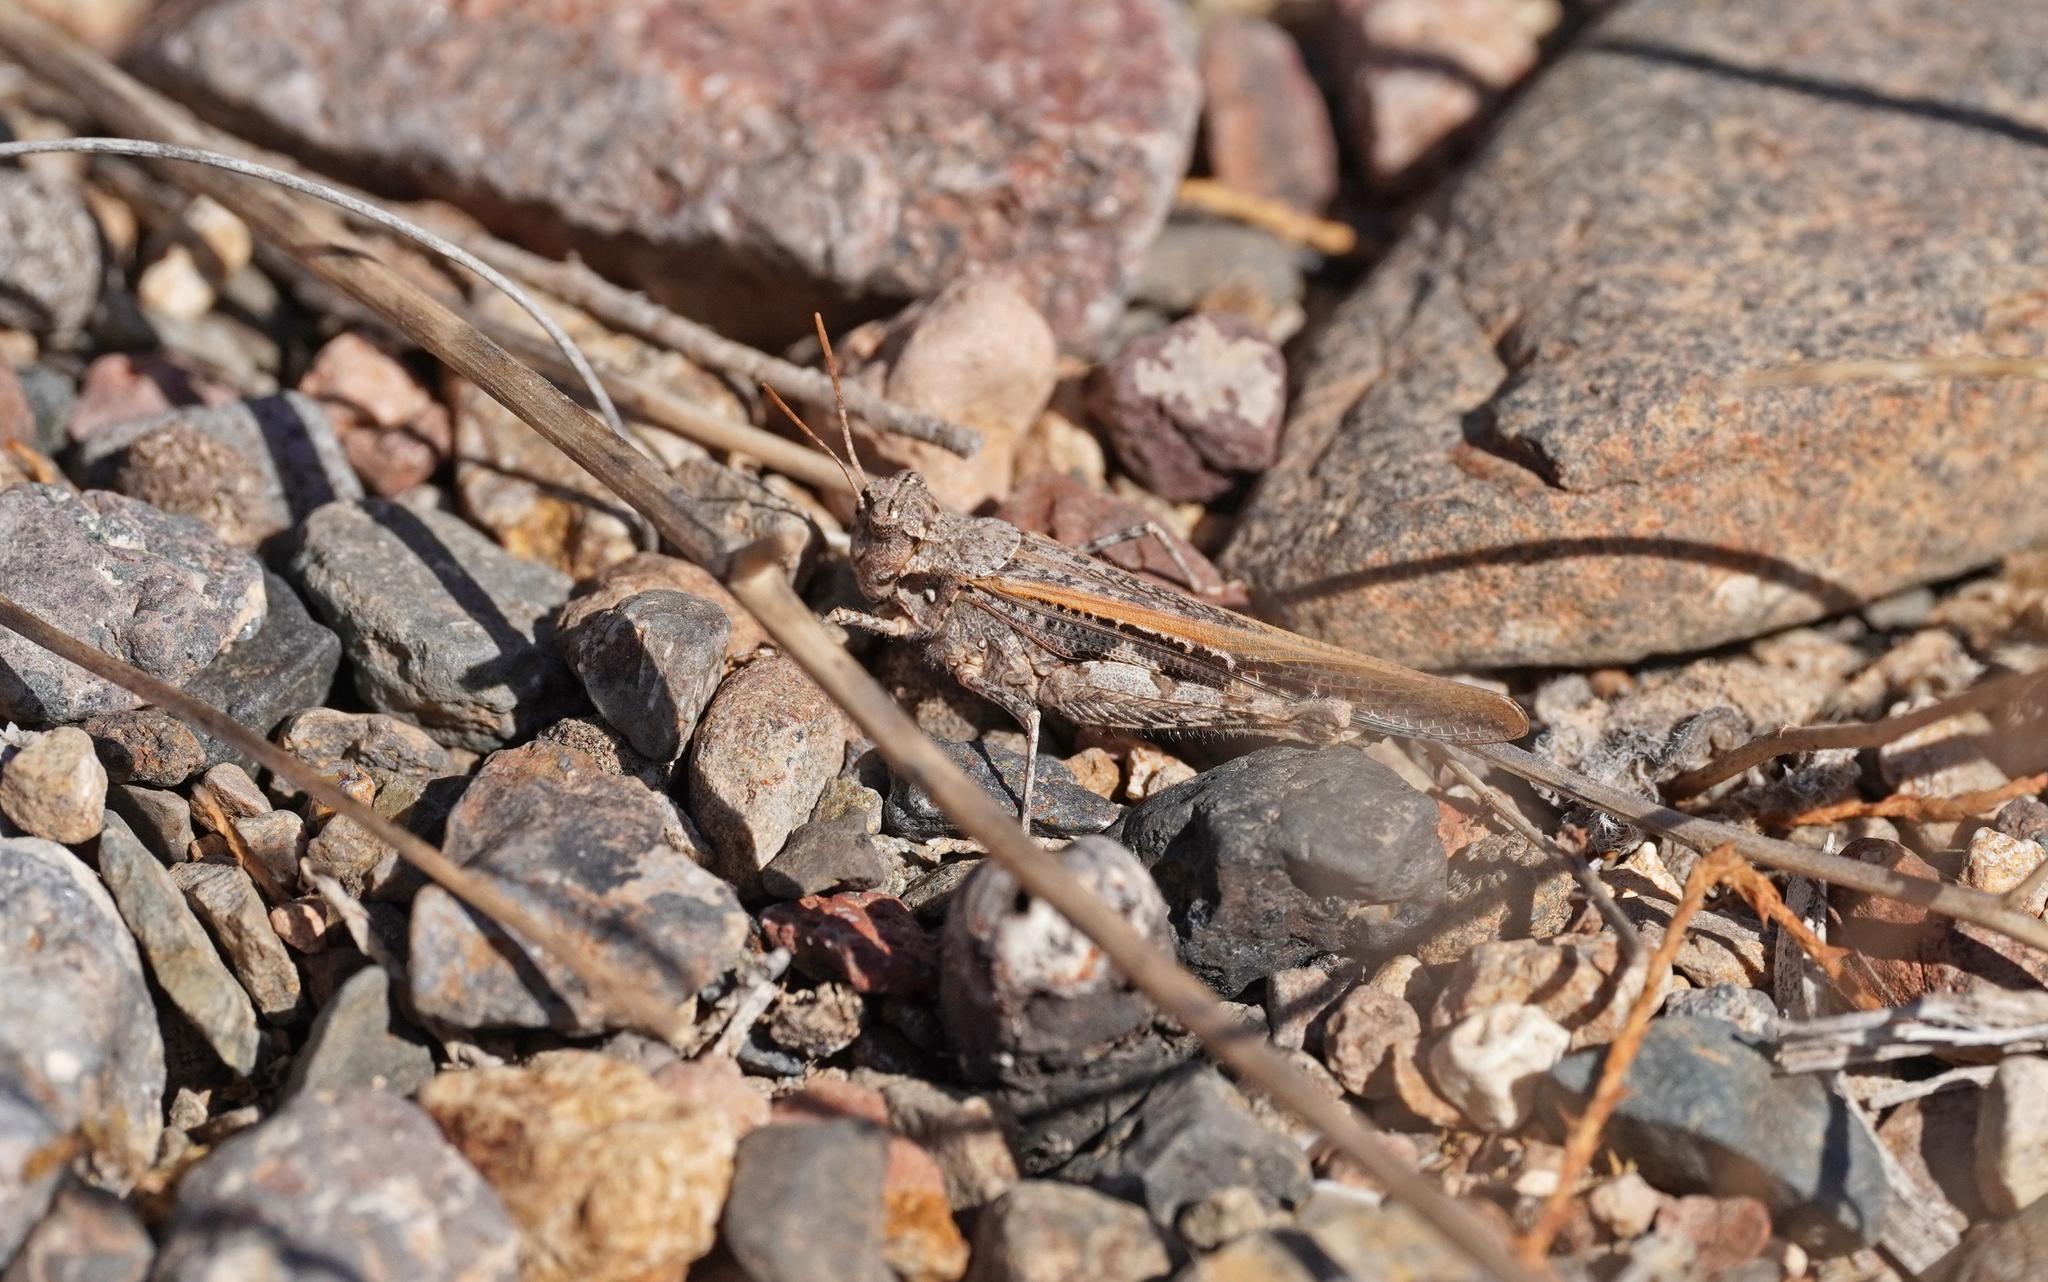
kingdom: Animalia
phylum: Arthropoda
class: Insecta
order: Orthoptera
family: Acrididae
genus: Acrotylus
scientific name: Acrotylus insubricus
